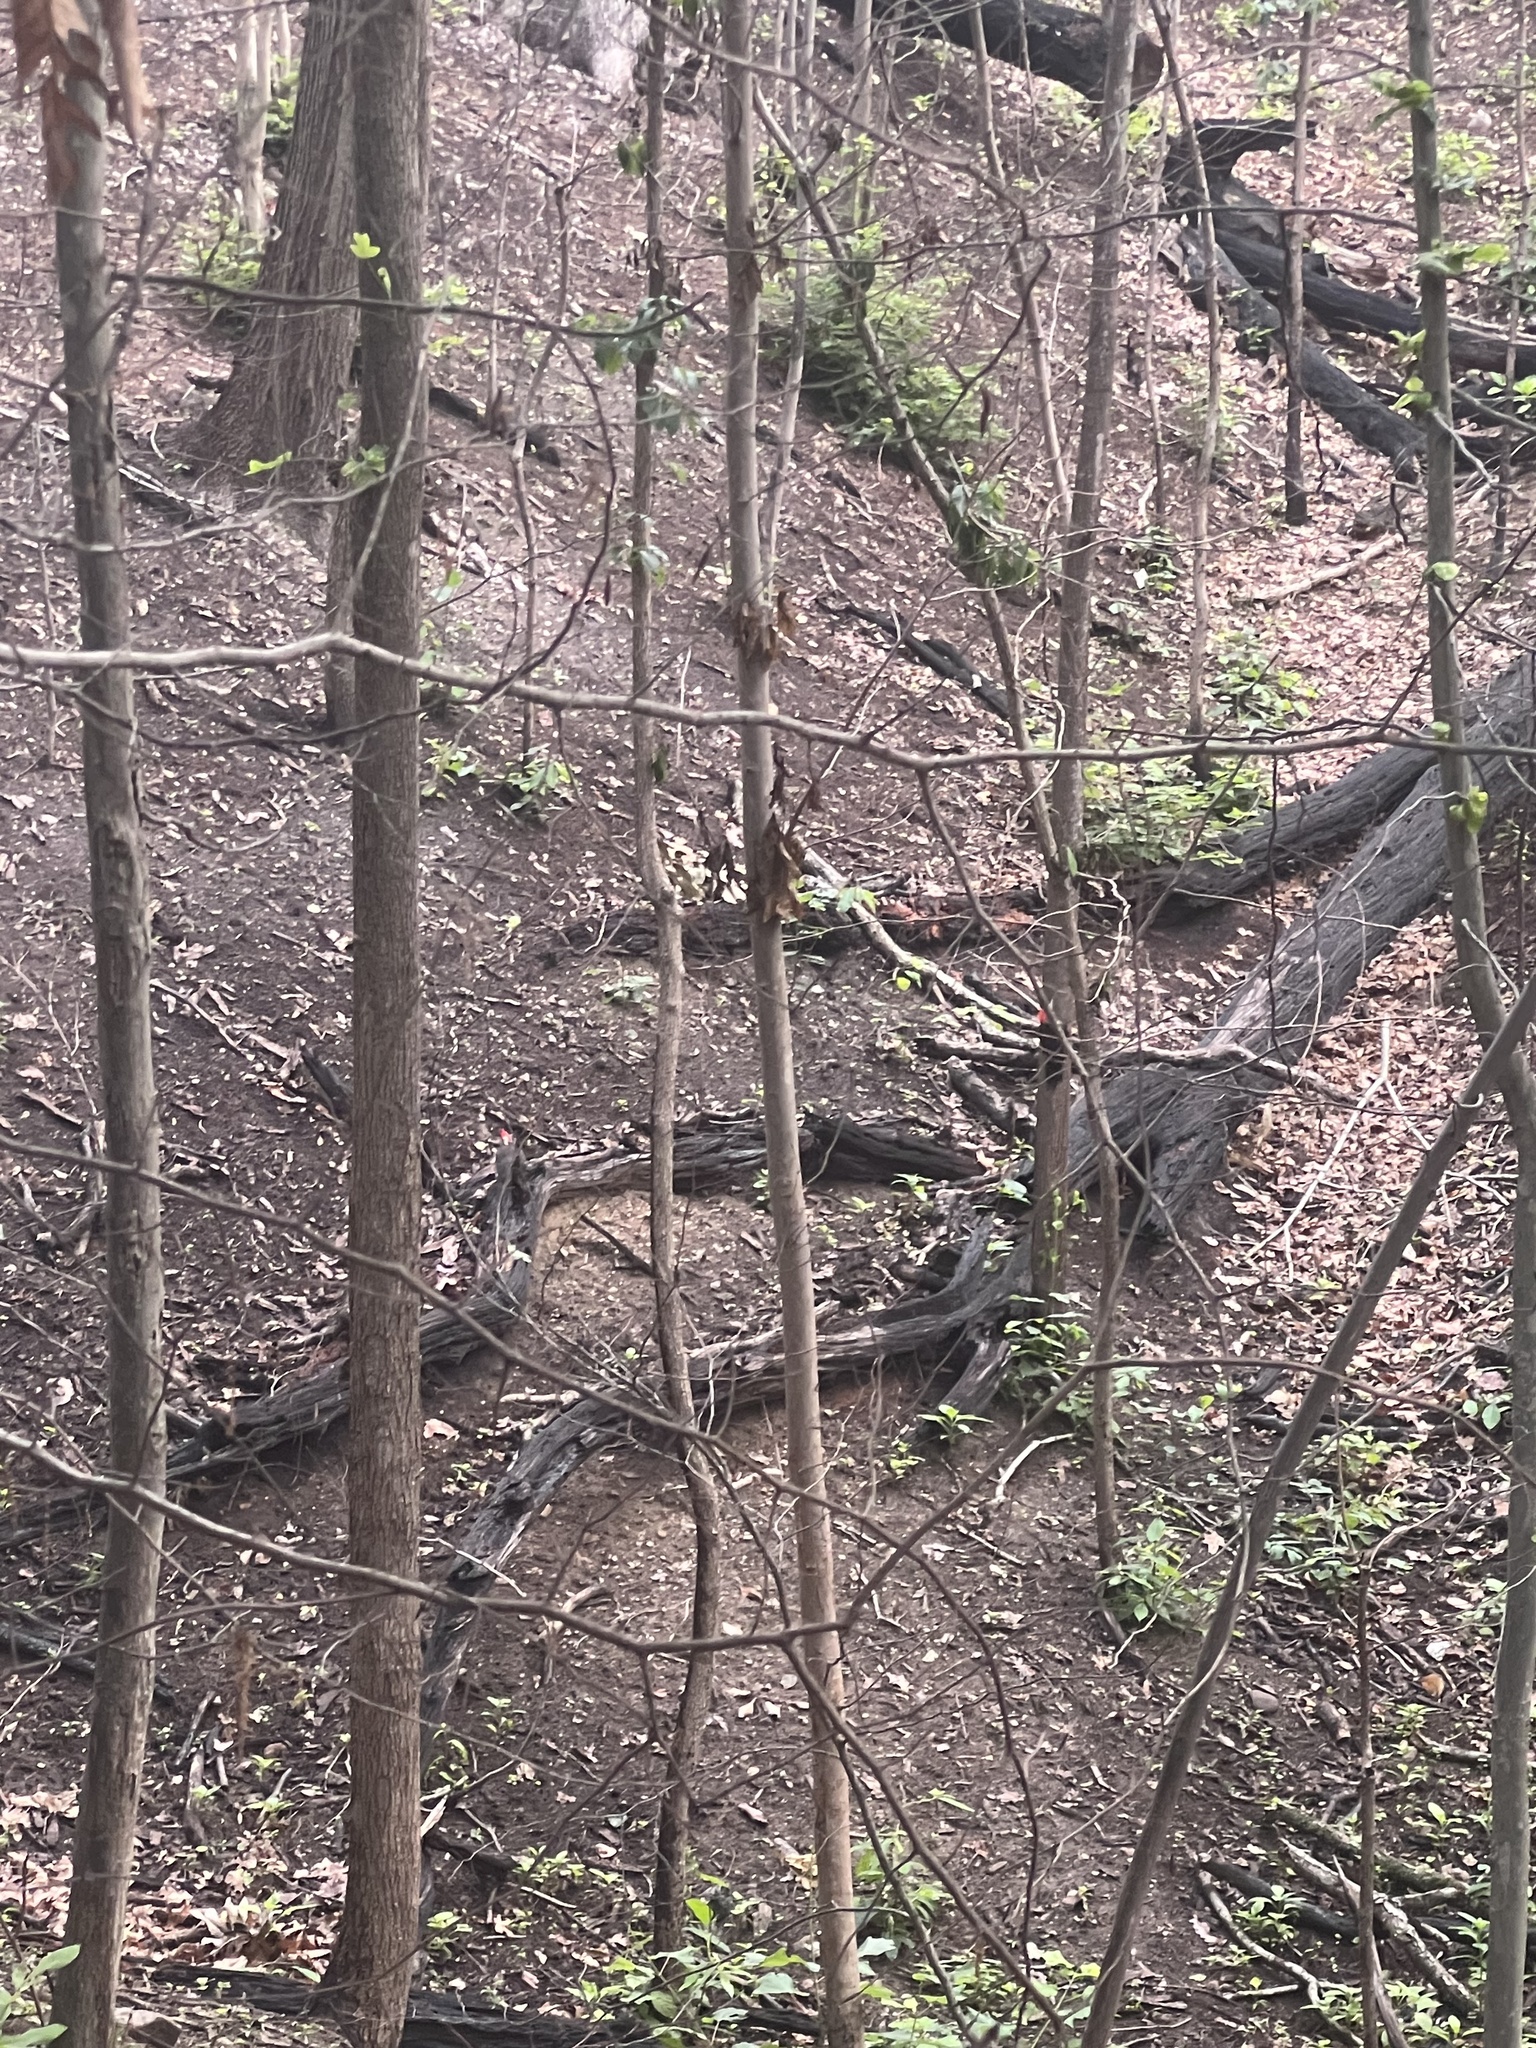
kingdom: Animalia
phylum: Chordata
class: Aves
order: Piciformes
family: Picidae
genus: Dryocopus
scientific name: Dryocopus pileatus
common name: Pileated woodpecker
